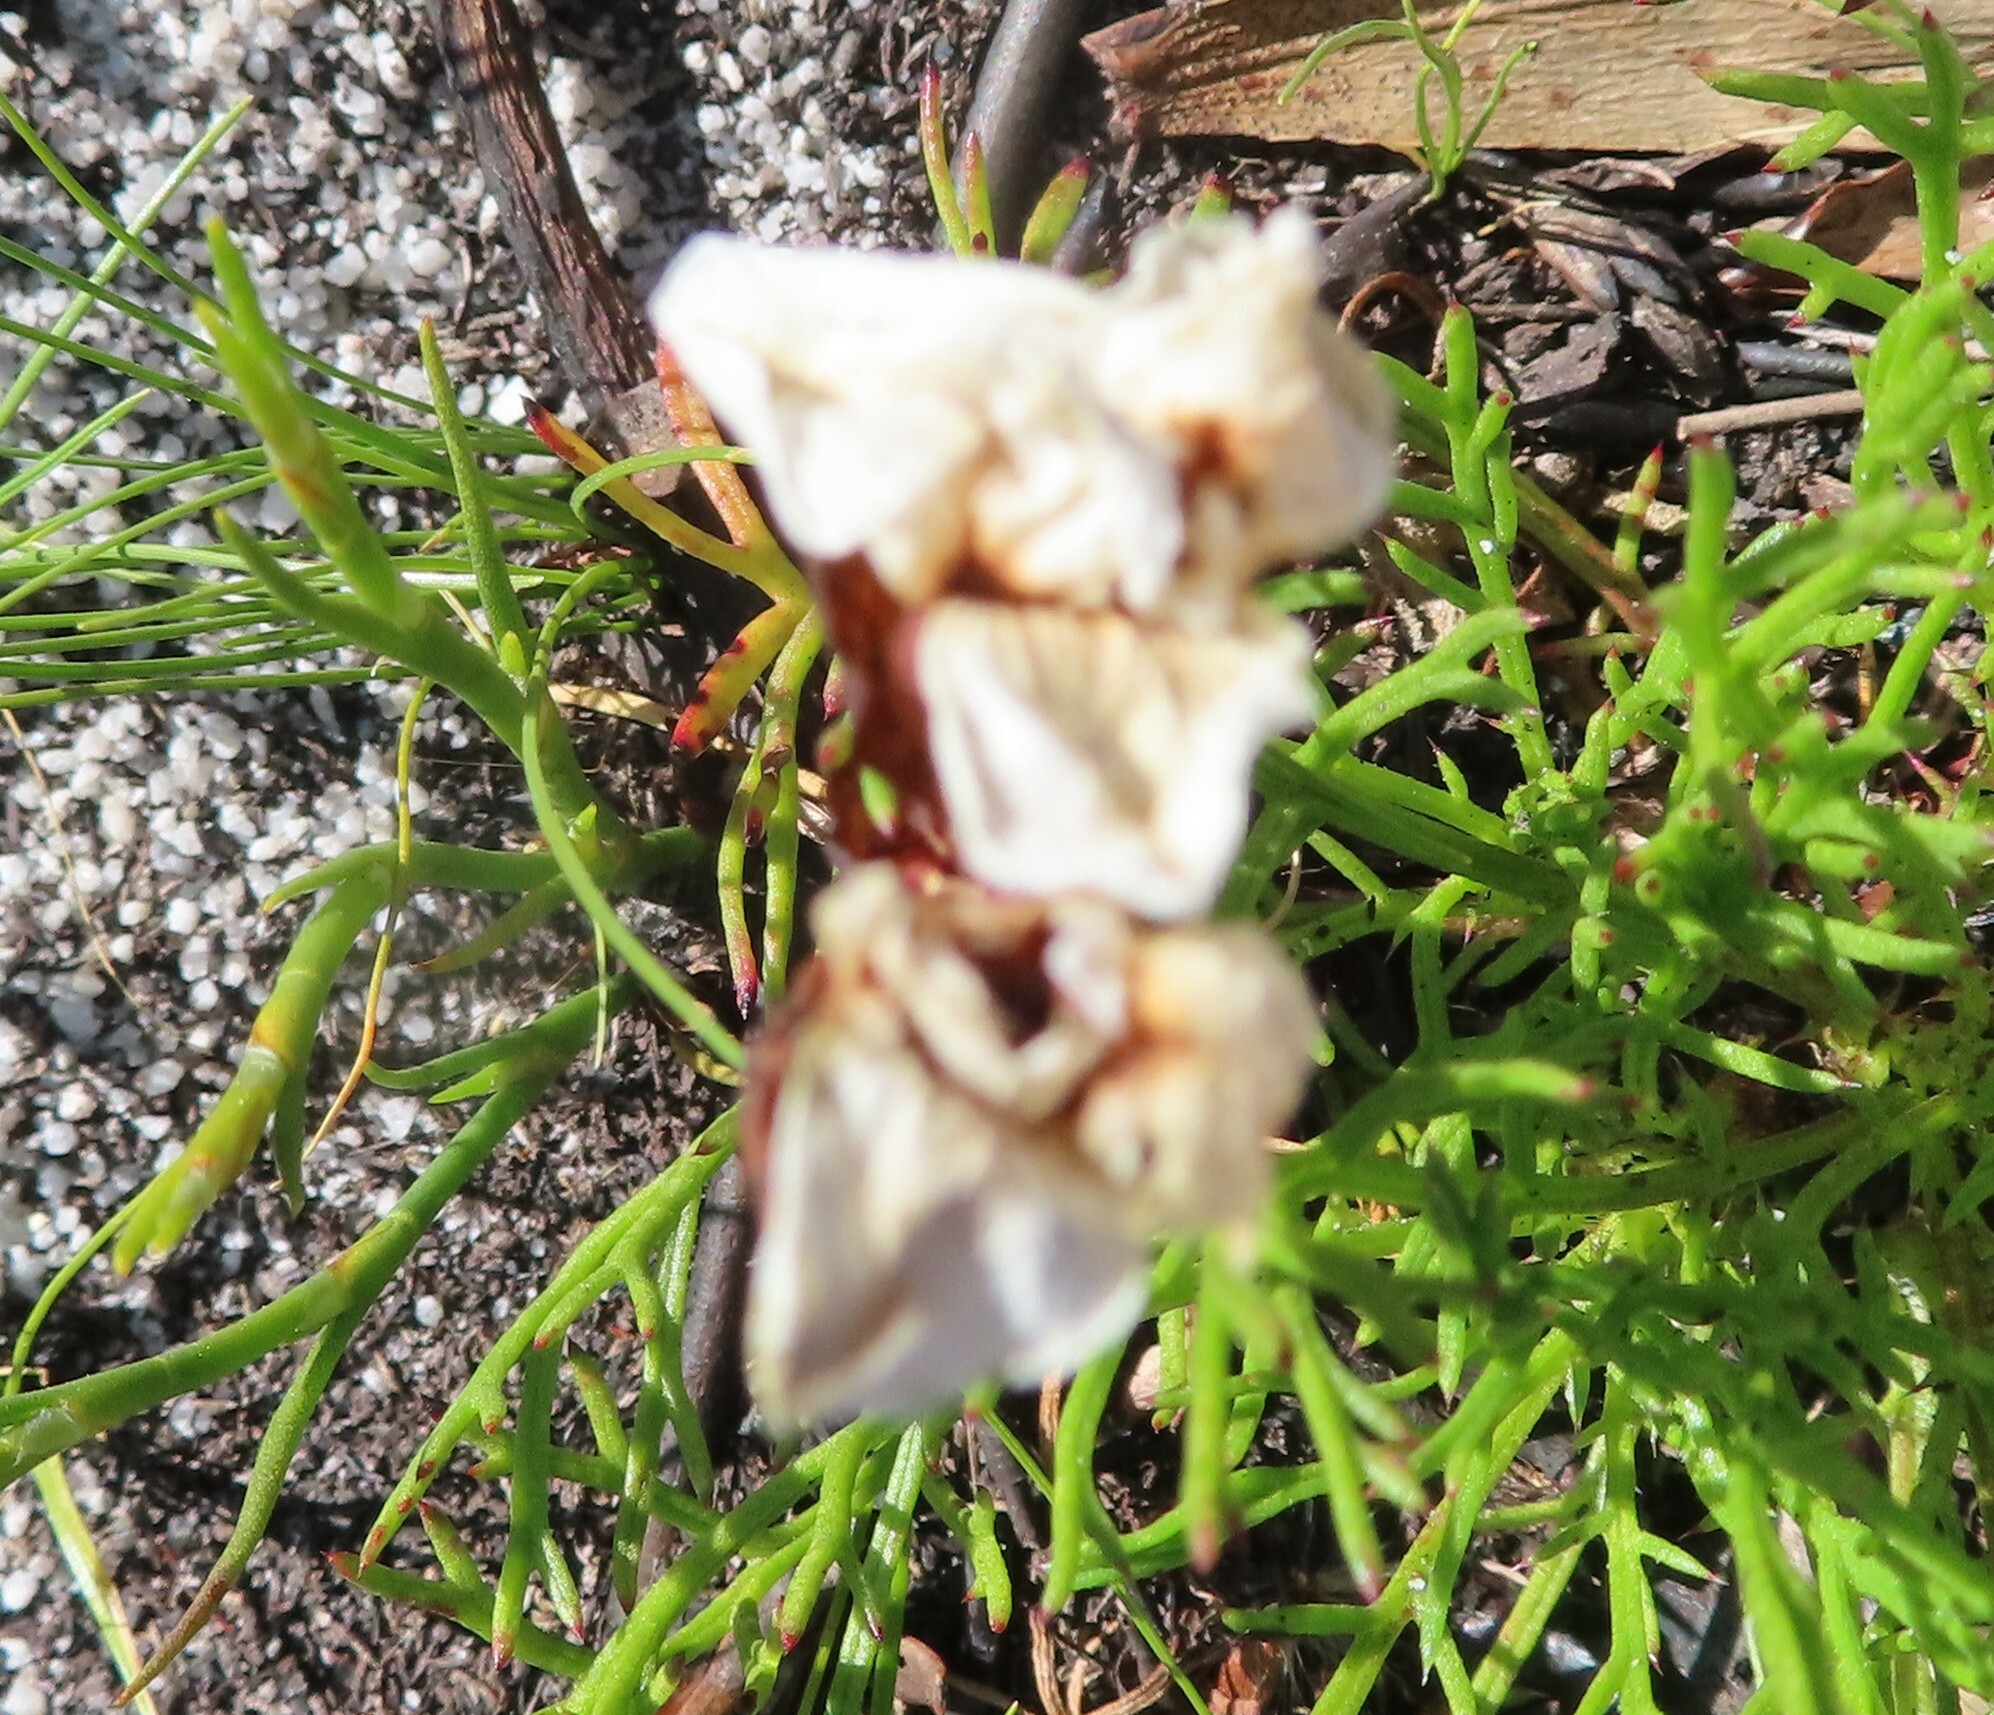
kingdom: Plantae
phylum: Tracheophyta
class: Liliopsida
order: Asparagales
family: Orchidaceae
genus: Disa
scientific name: Disa fasciata
